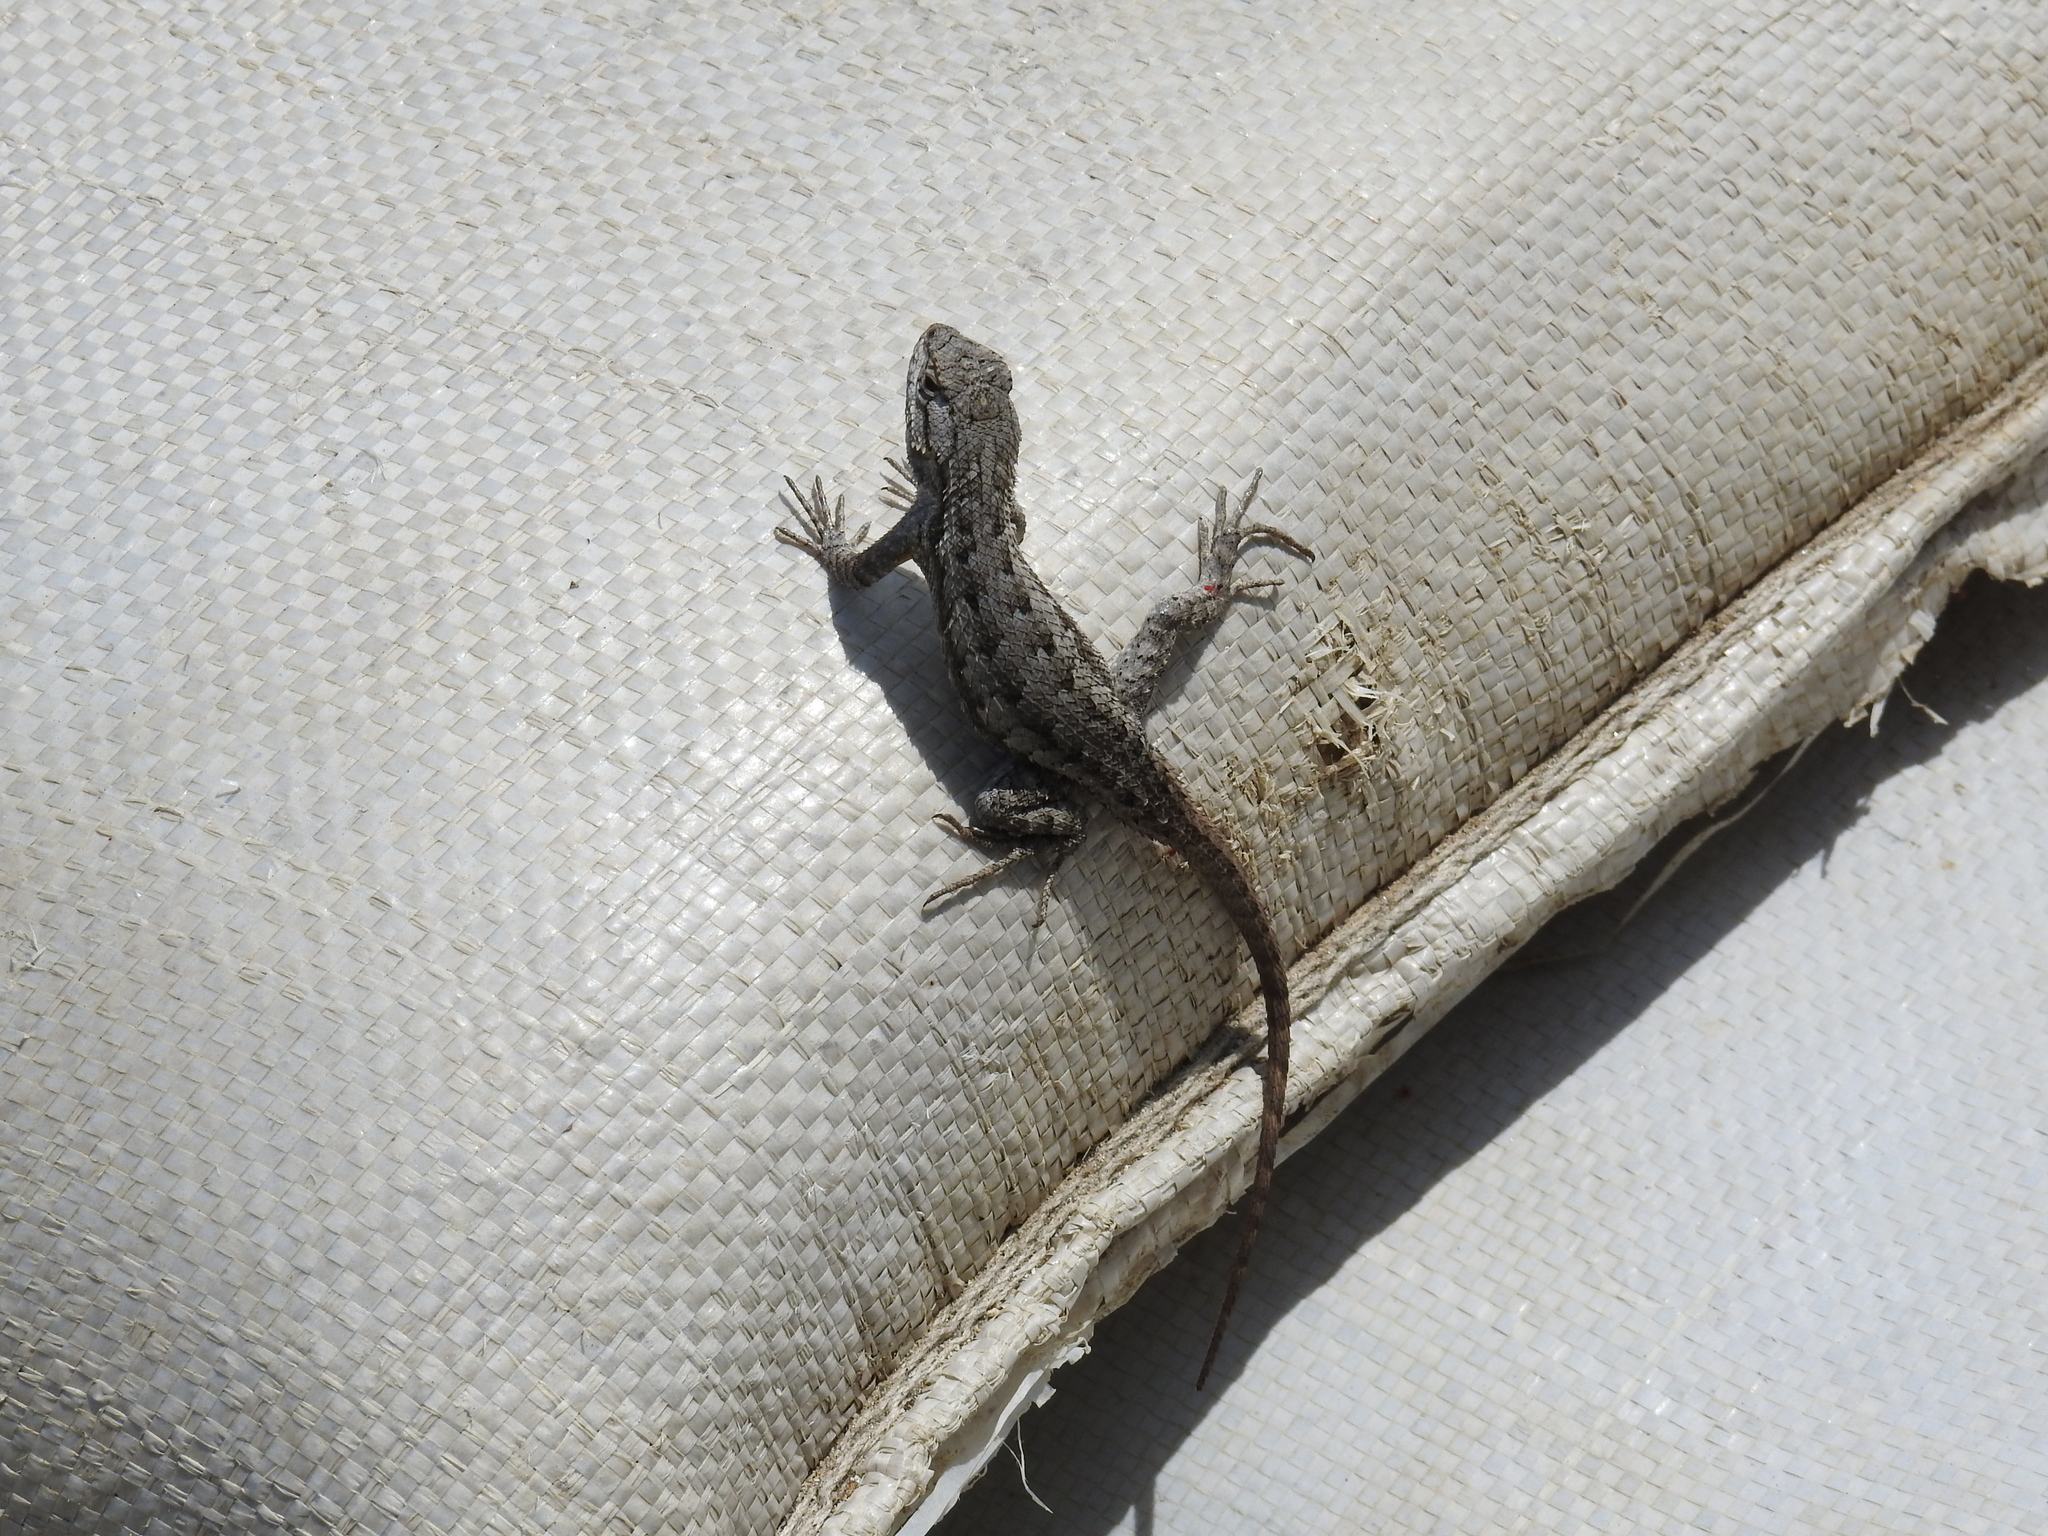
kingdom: Animalia
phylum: Chordata
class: Squamata
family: Phrynosomatidae
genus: Sceloporus
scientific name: Sceloporus occidentalis
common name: Western fence lizard
